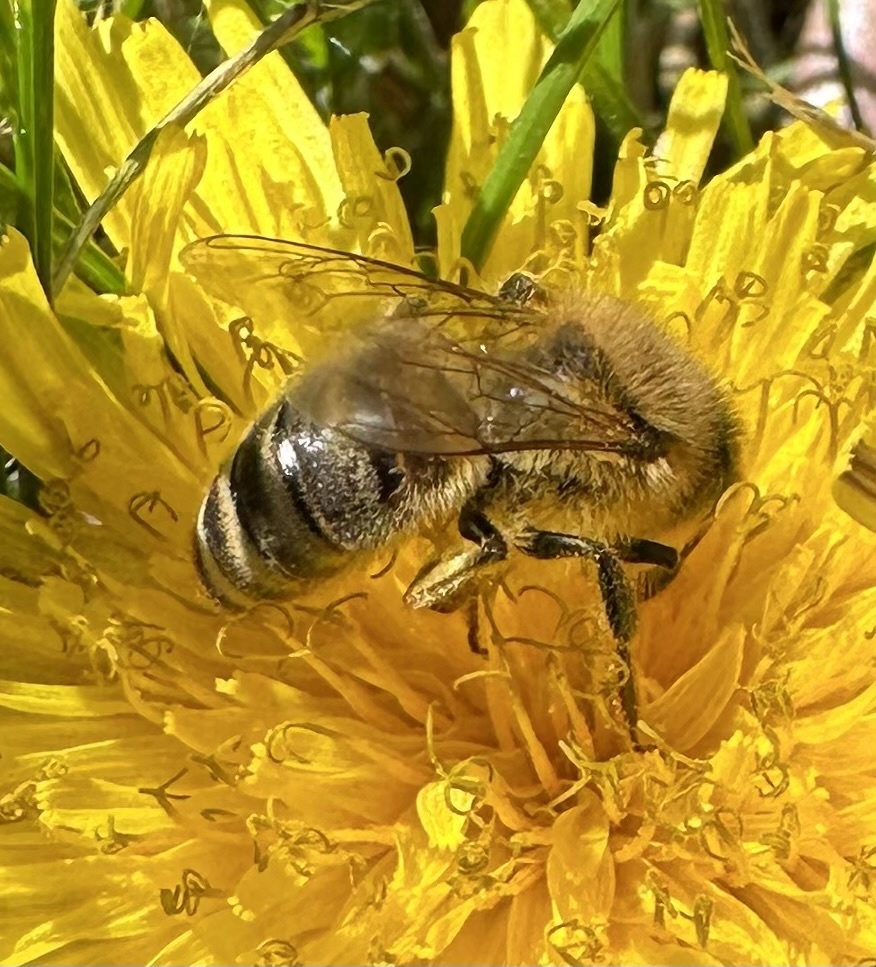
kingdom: Animalia
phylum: Arthropoda
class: Insecta
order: Hymenoptera
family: Apidae
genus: Apis
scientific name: Apis mellifera
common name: Honey bee
